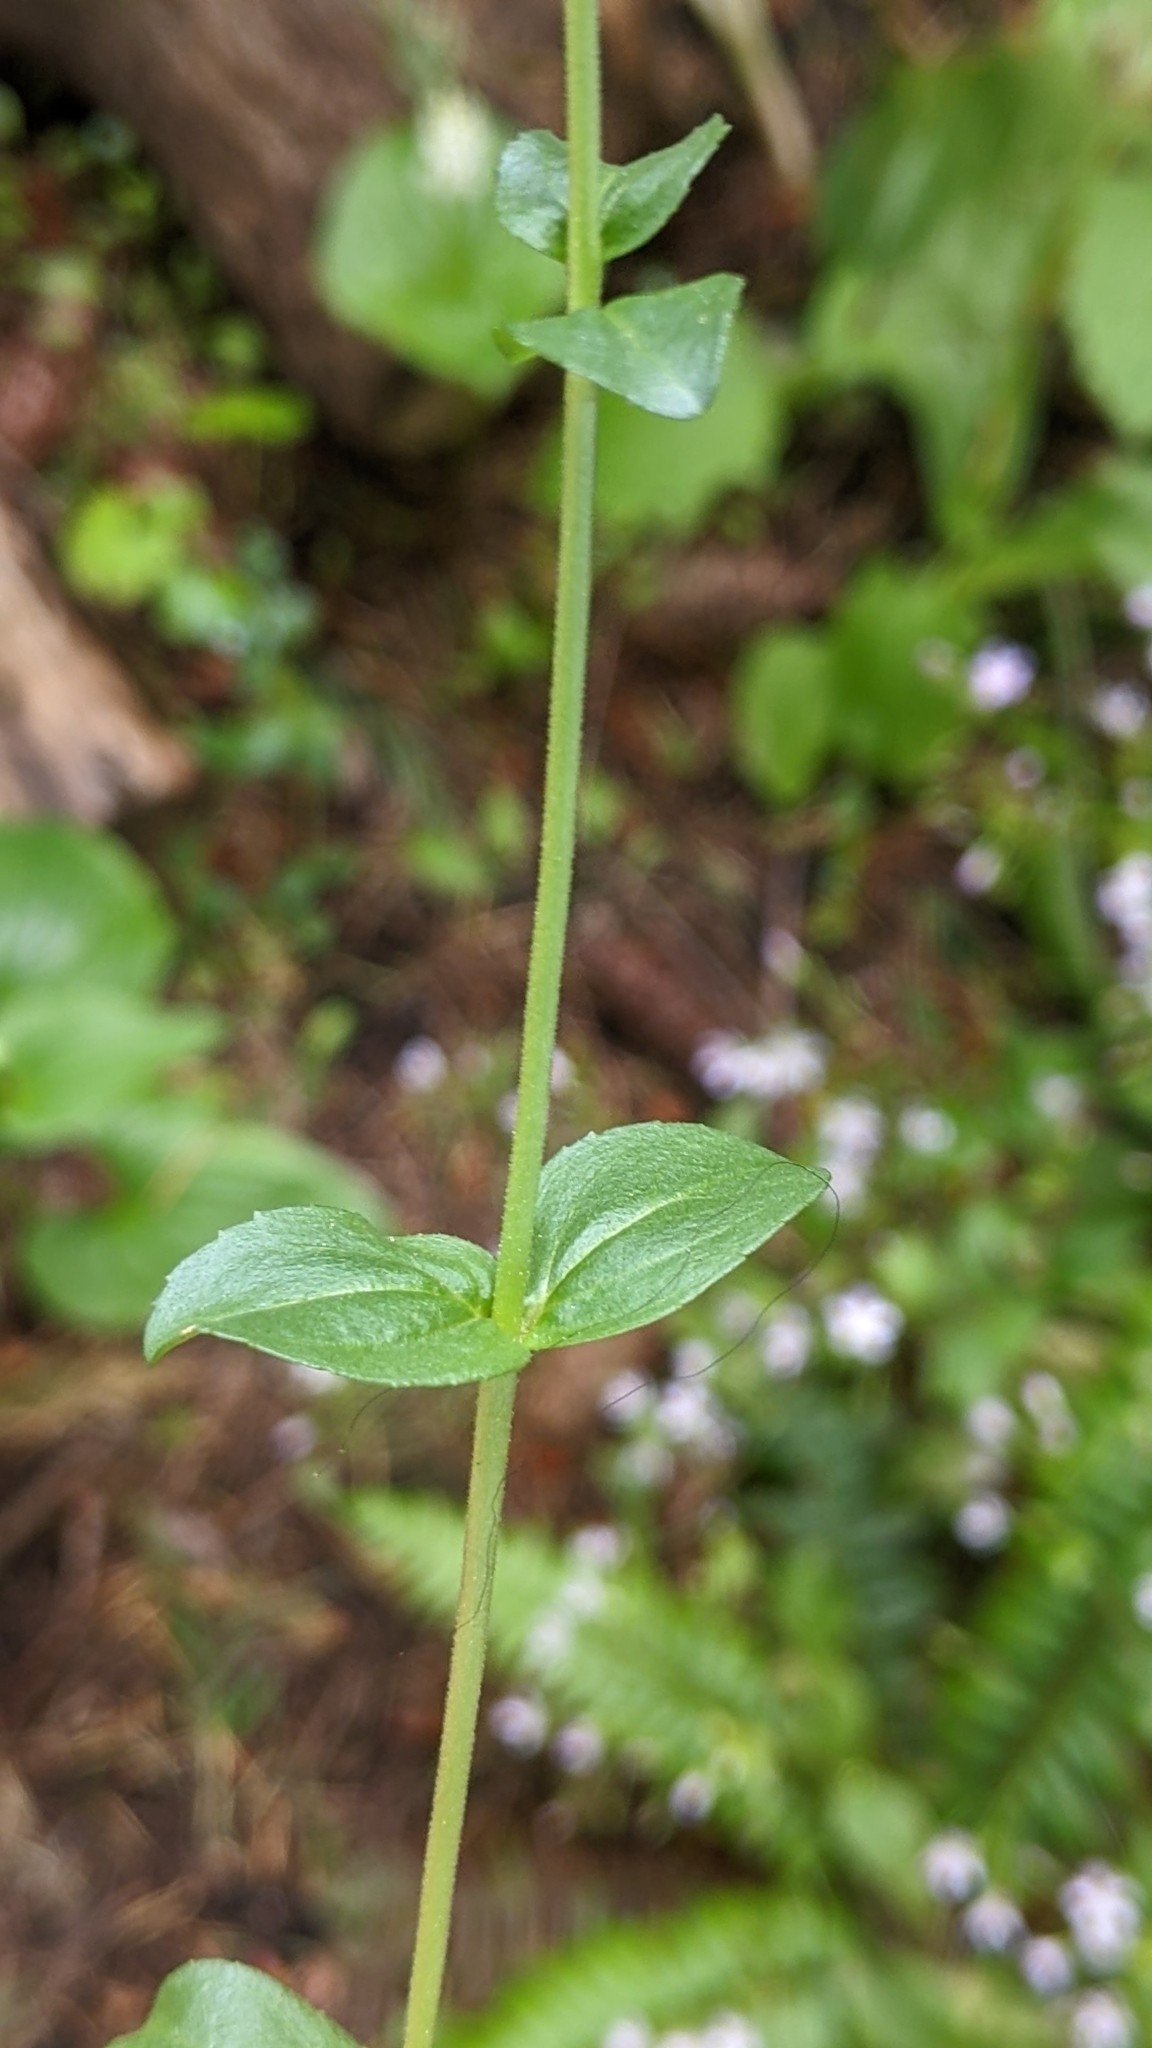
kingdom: Plantae
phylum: Tracheophyta
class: Magnoliopsida
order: Lamiales
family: Plantaginaceae
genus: Veronica
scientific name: Veronica serpyllifolia
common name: Thyme-leaved speedwell
